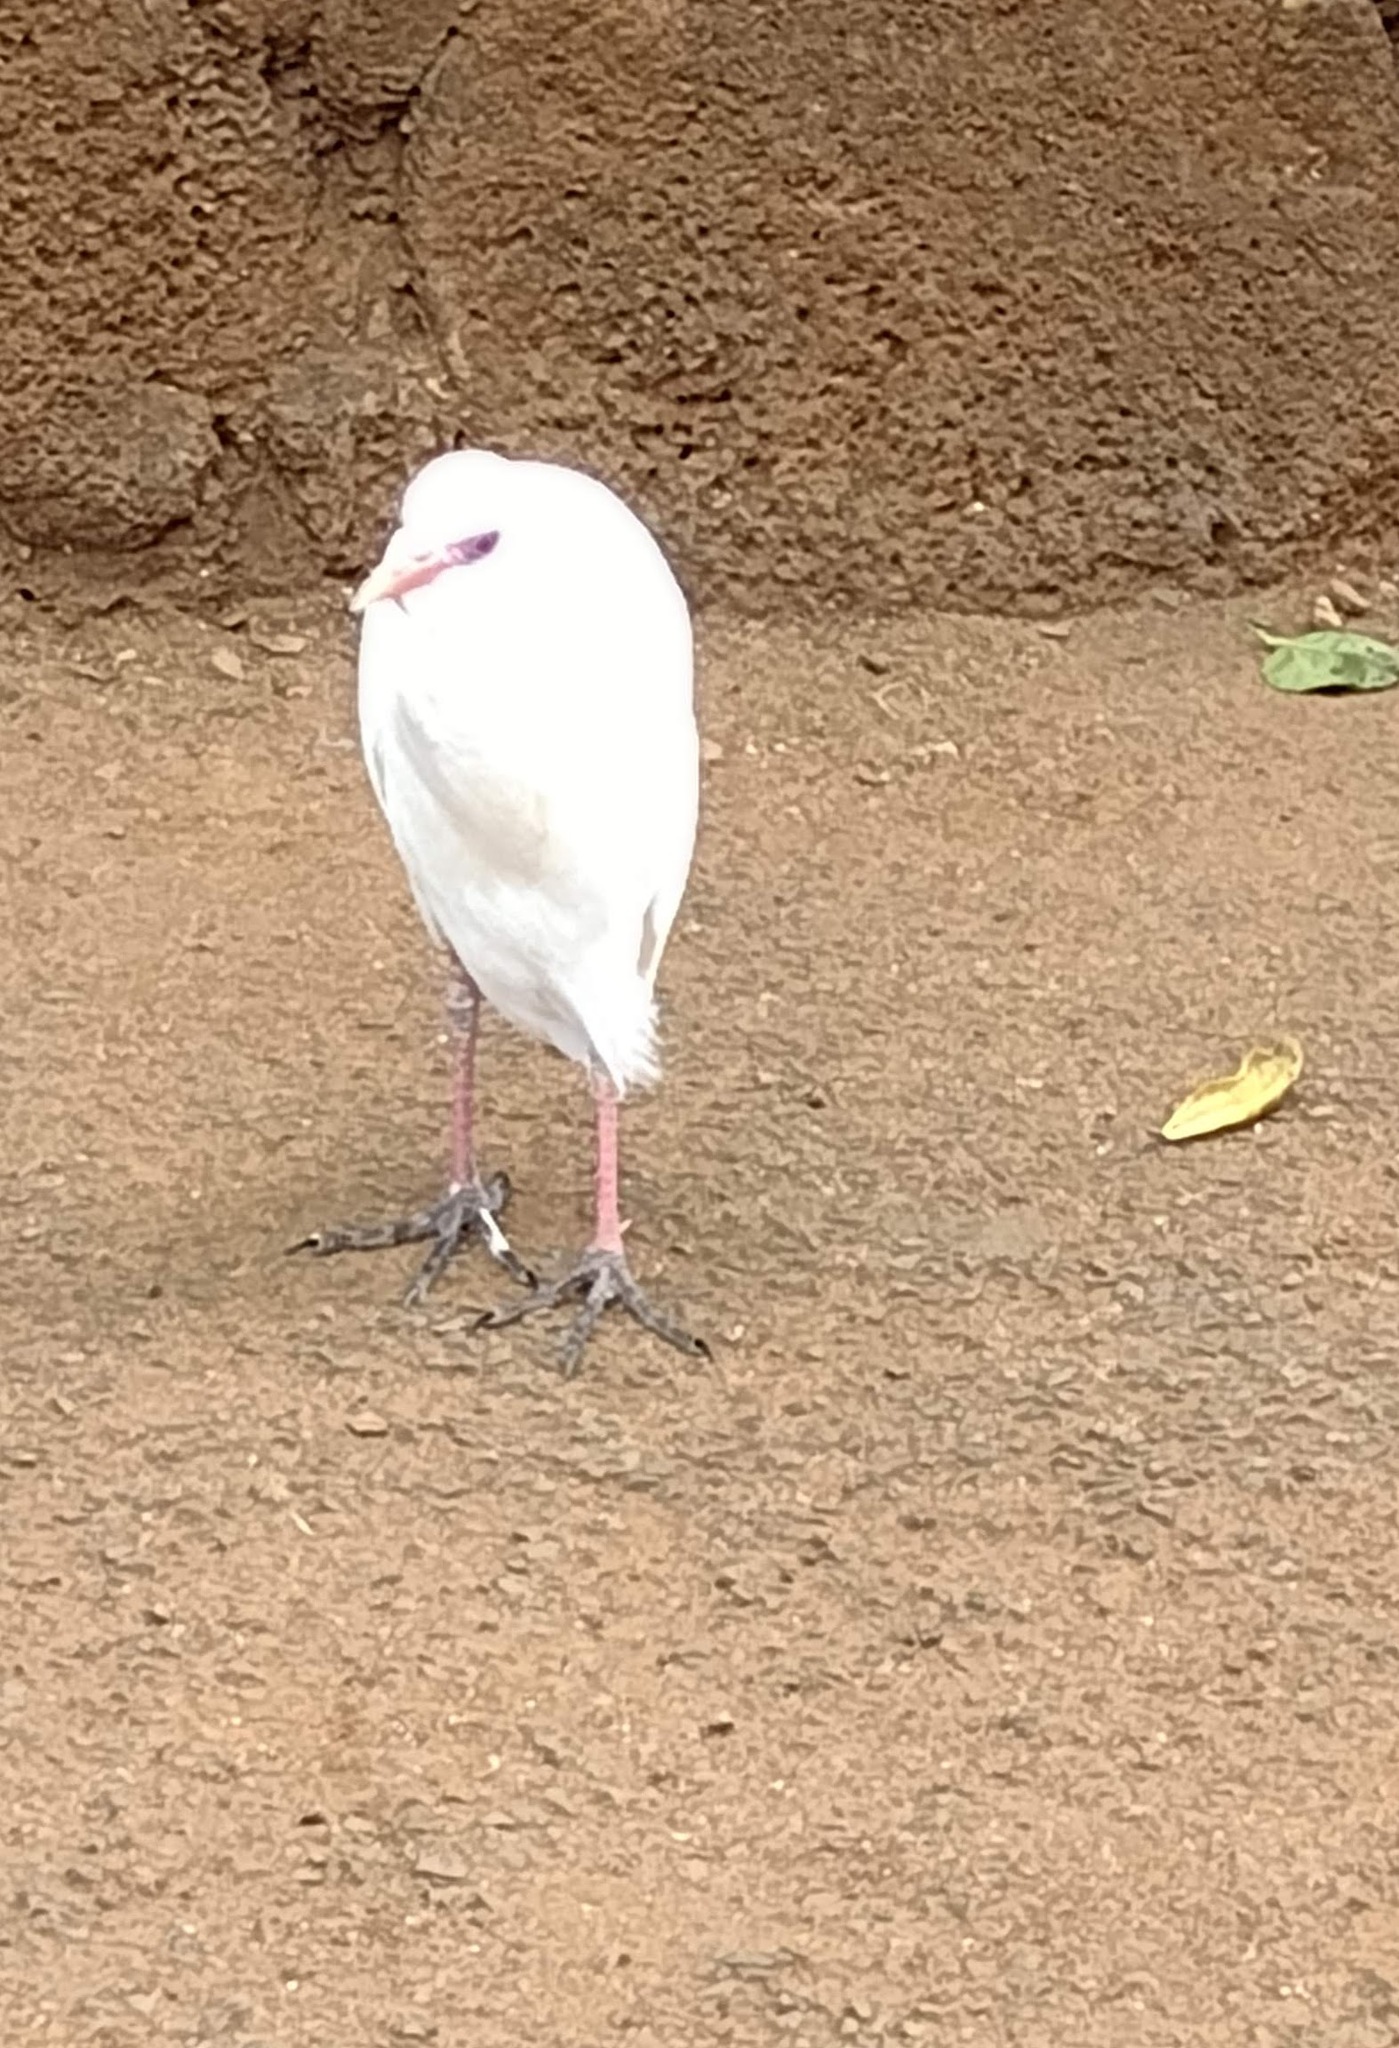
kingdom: Animalia
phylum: Chordata
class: Aves
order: Pelecaniformes
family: Ardeidae
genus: Bubulcus
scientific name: Bubulcus ibis
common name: Cattle egret
